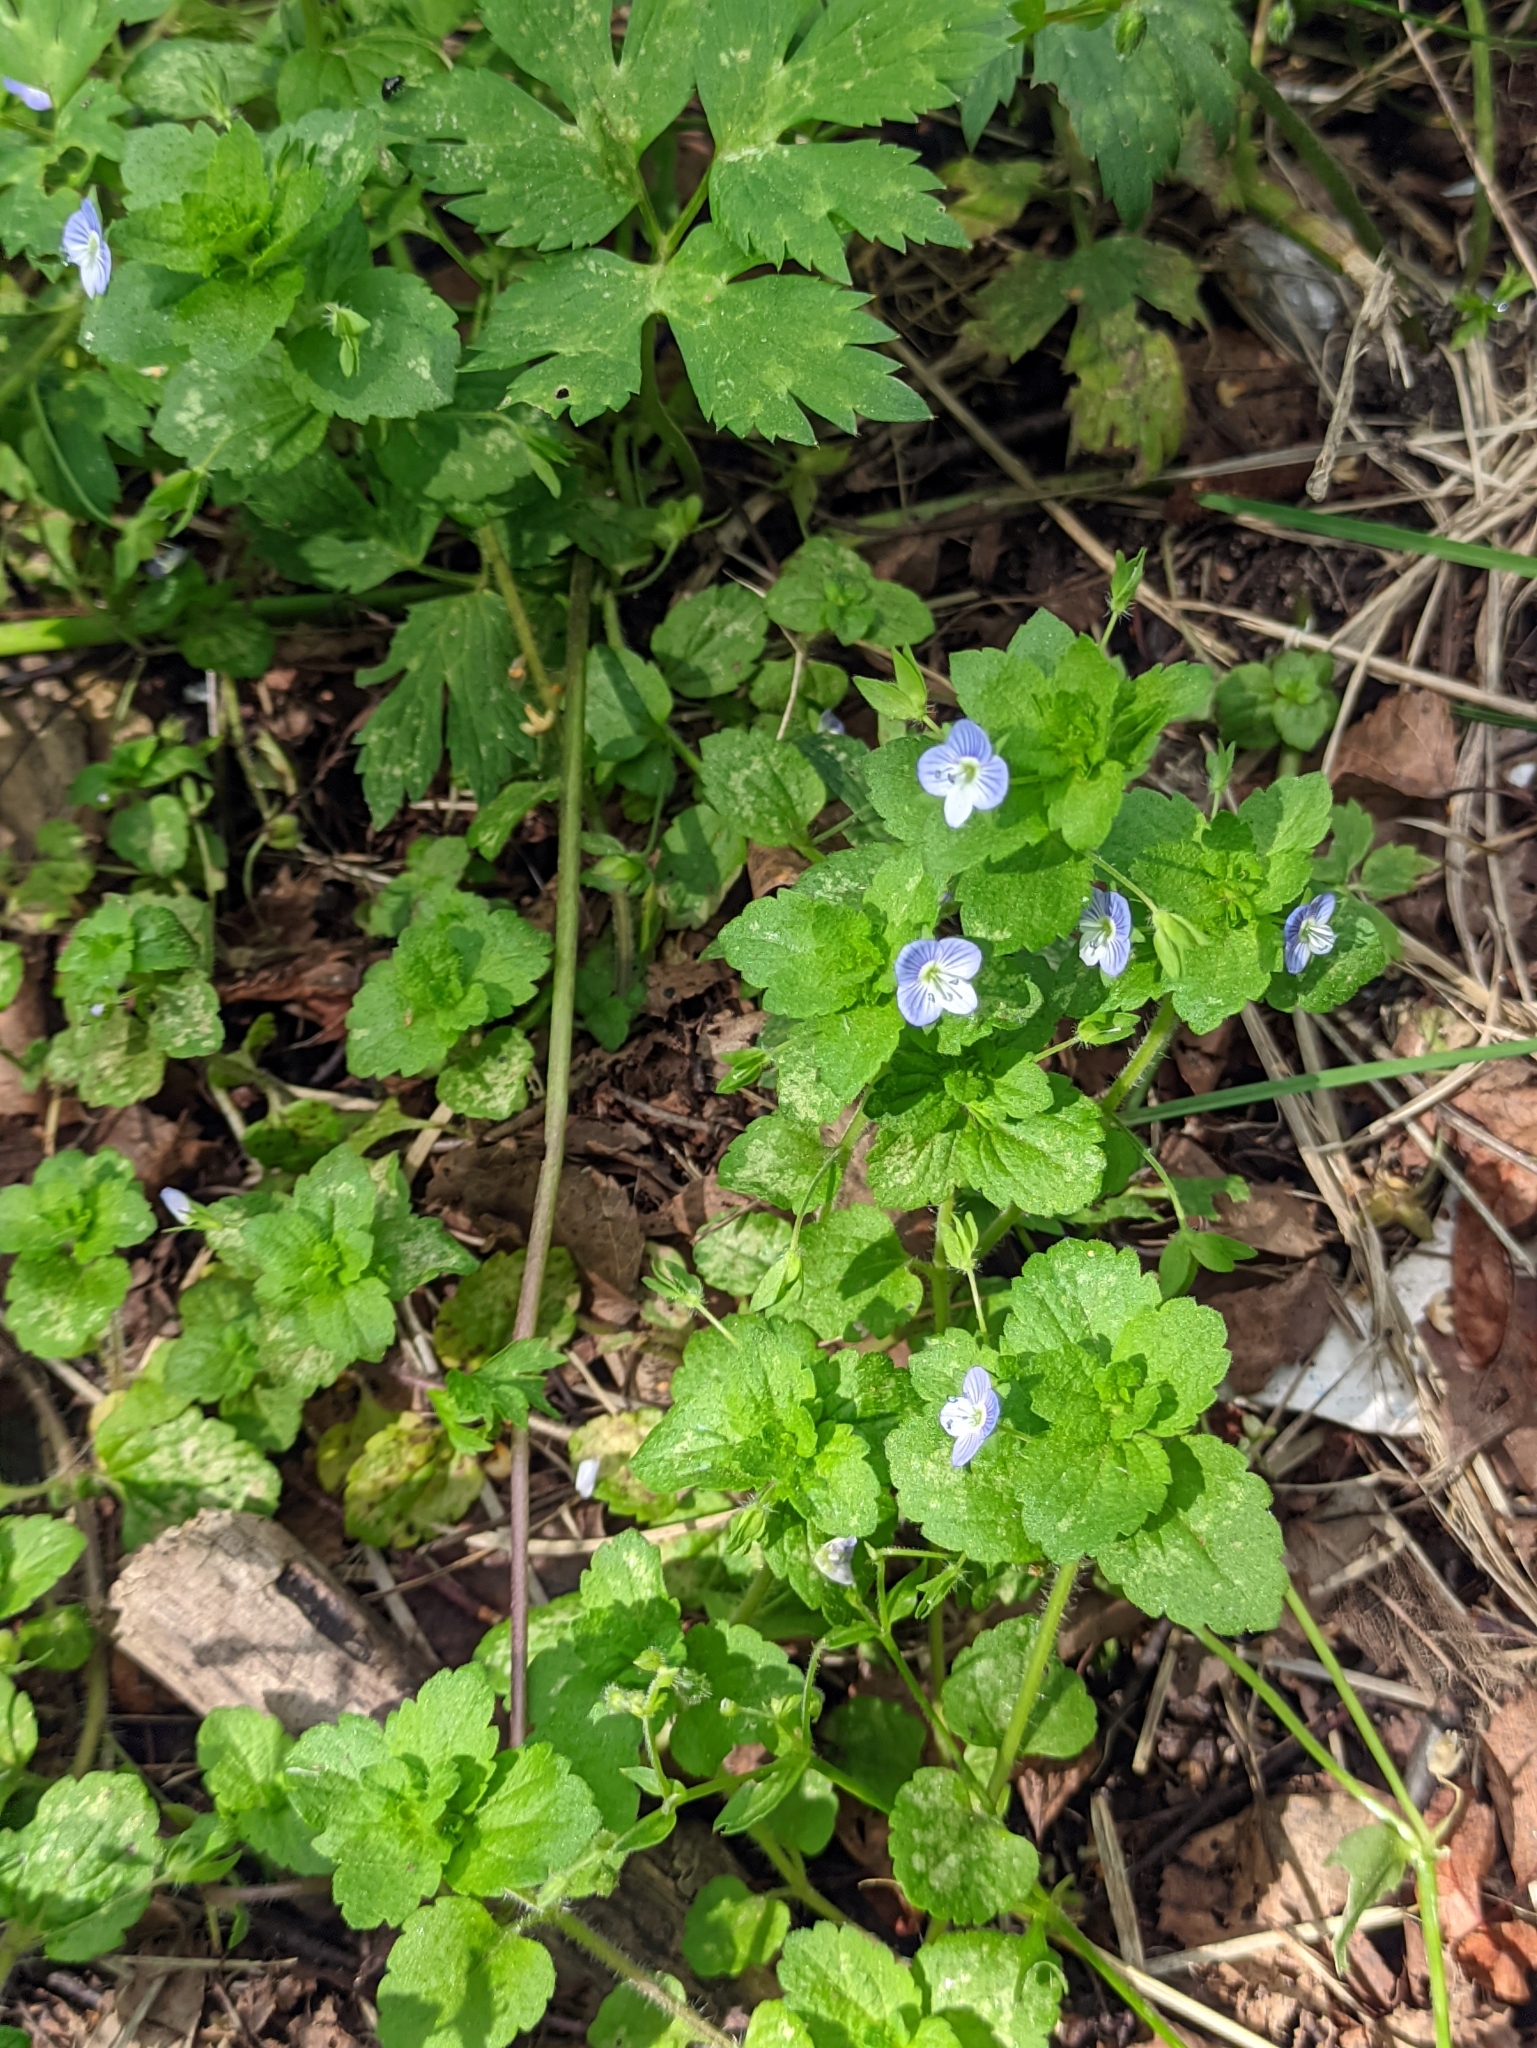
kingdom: Plantae
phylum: Tracheophyta
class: Magnoliopsida
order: Lamiales
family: Plantaginaceae
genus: Veronica
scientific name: Veronica persica
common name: Common field-speedwell
